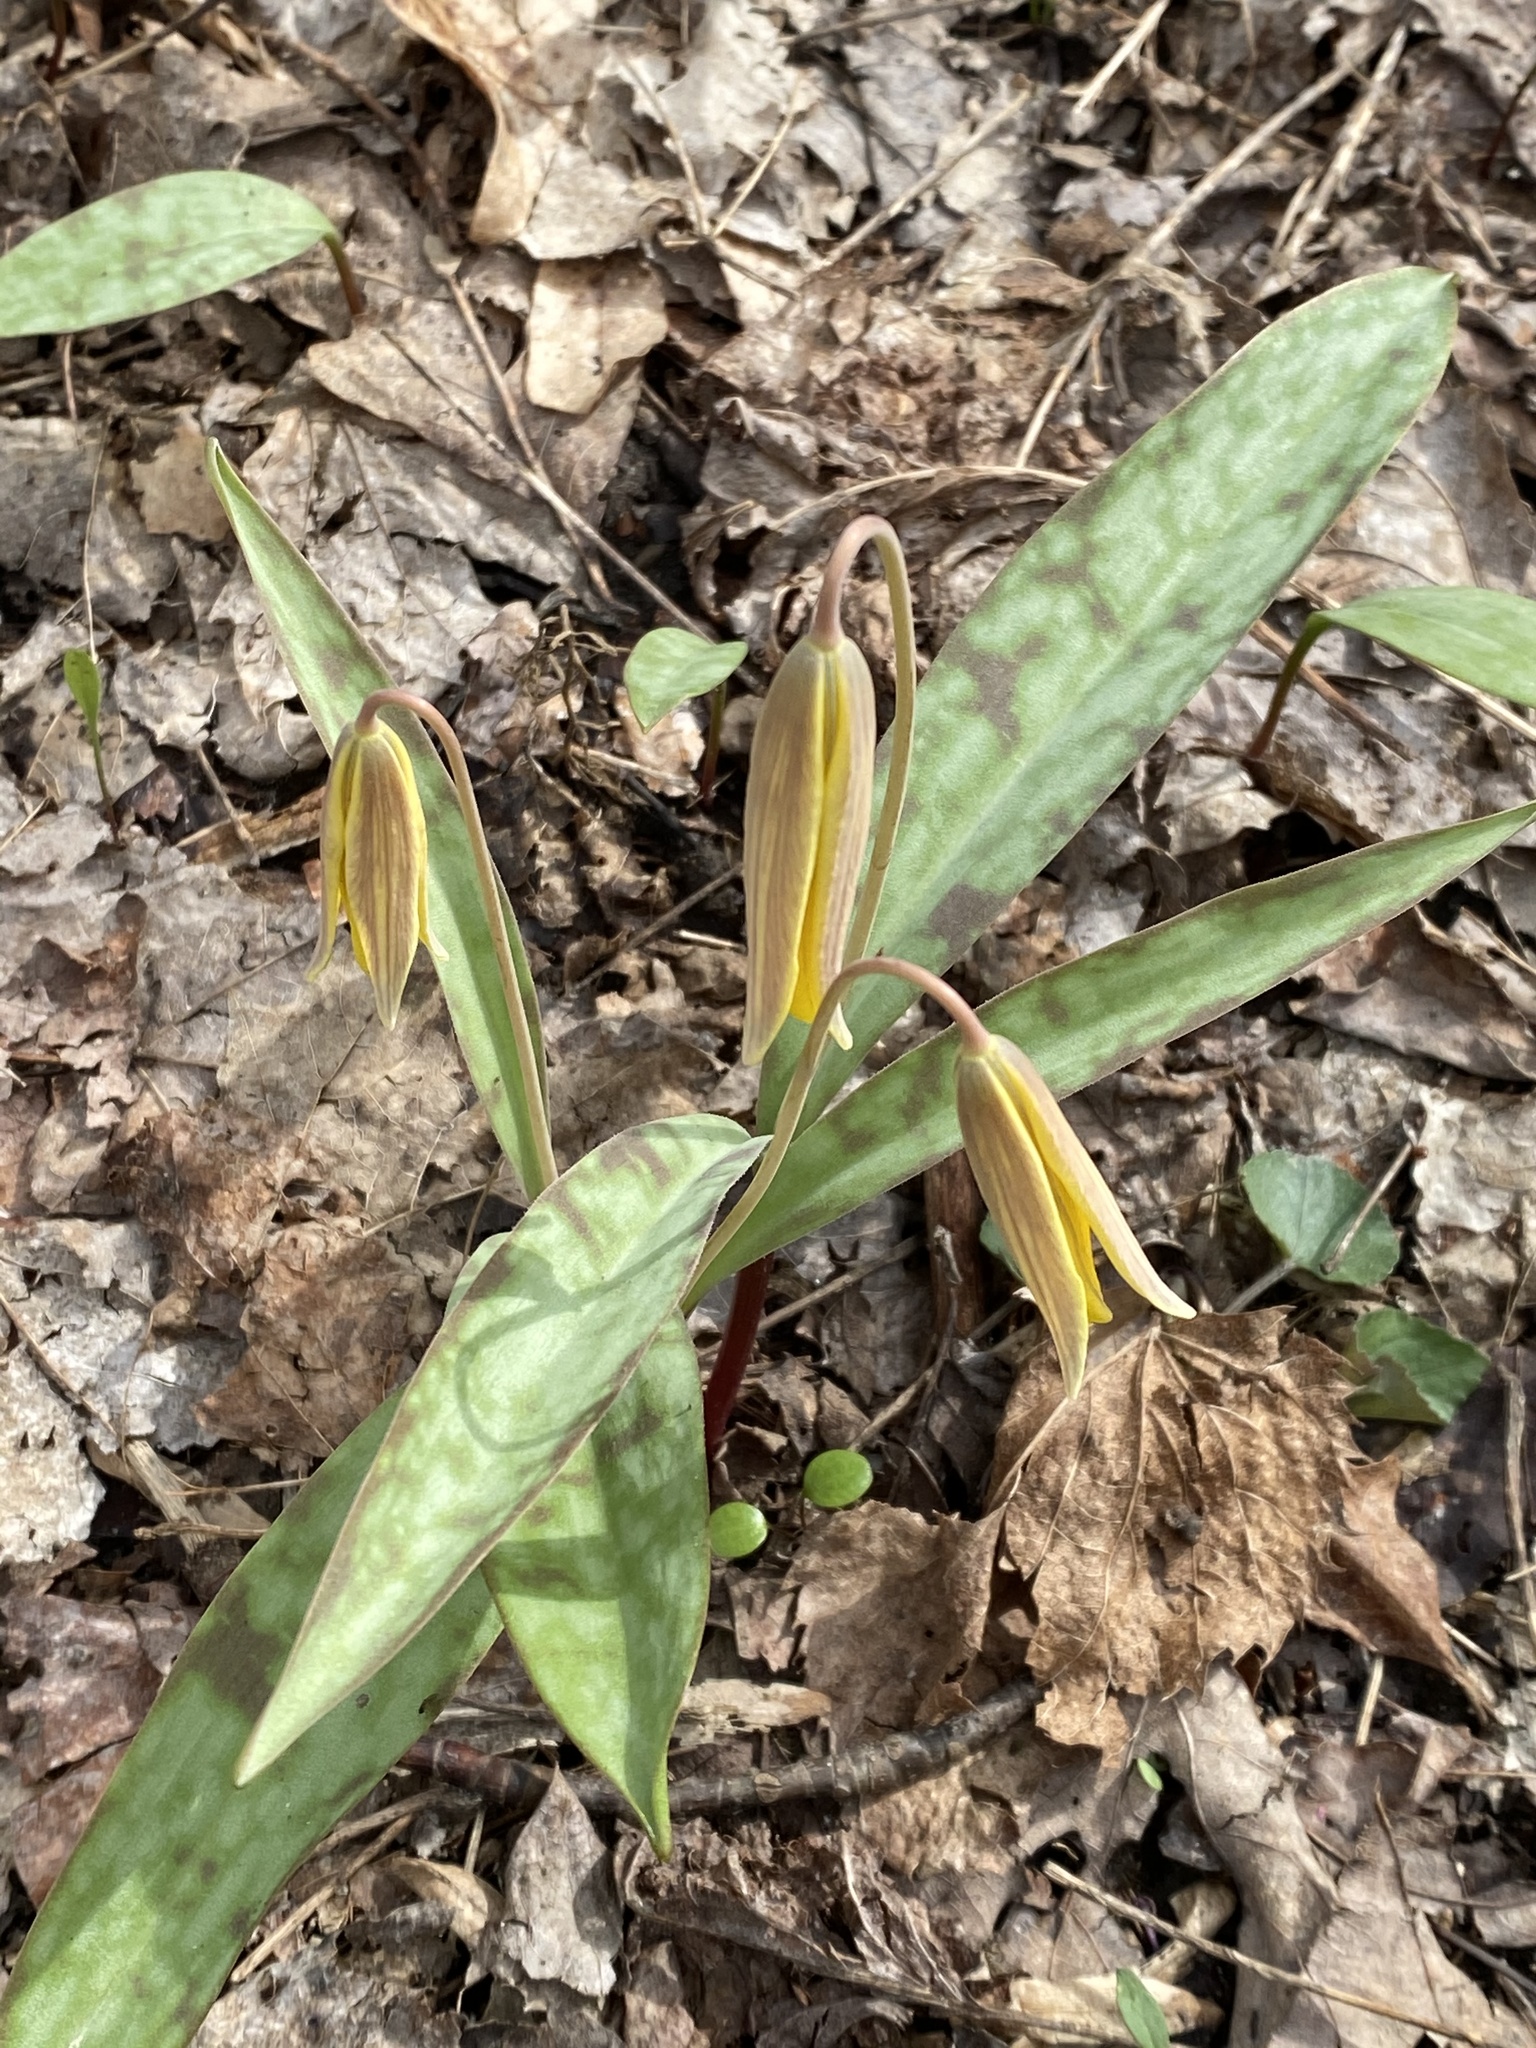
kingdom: Plantae
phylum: Tracheophyta
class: Liliopsida
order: Liliales
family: Liliaceae
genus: Erythronium
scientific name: Erythronium americanum
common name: Yellow adder's-tongue
